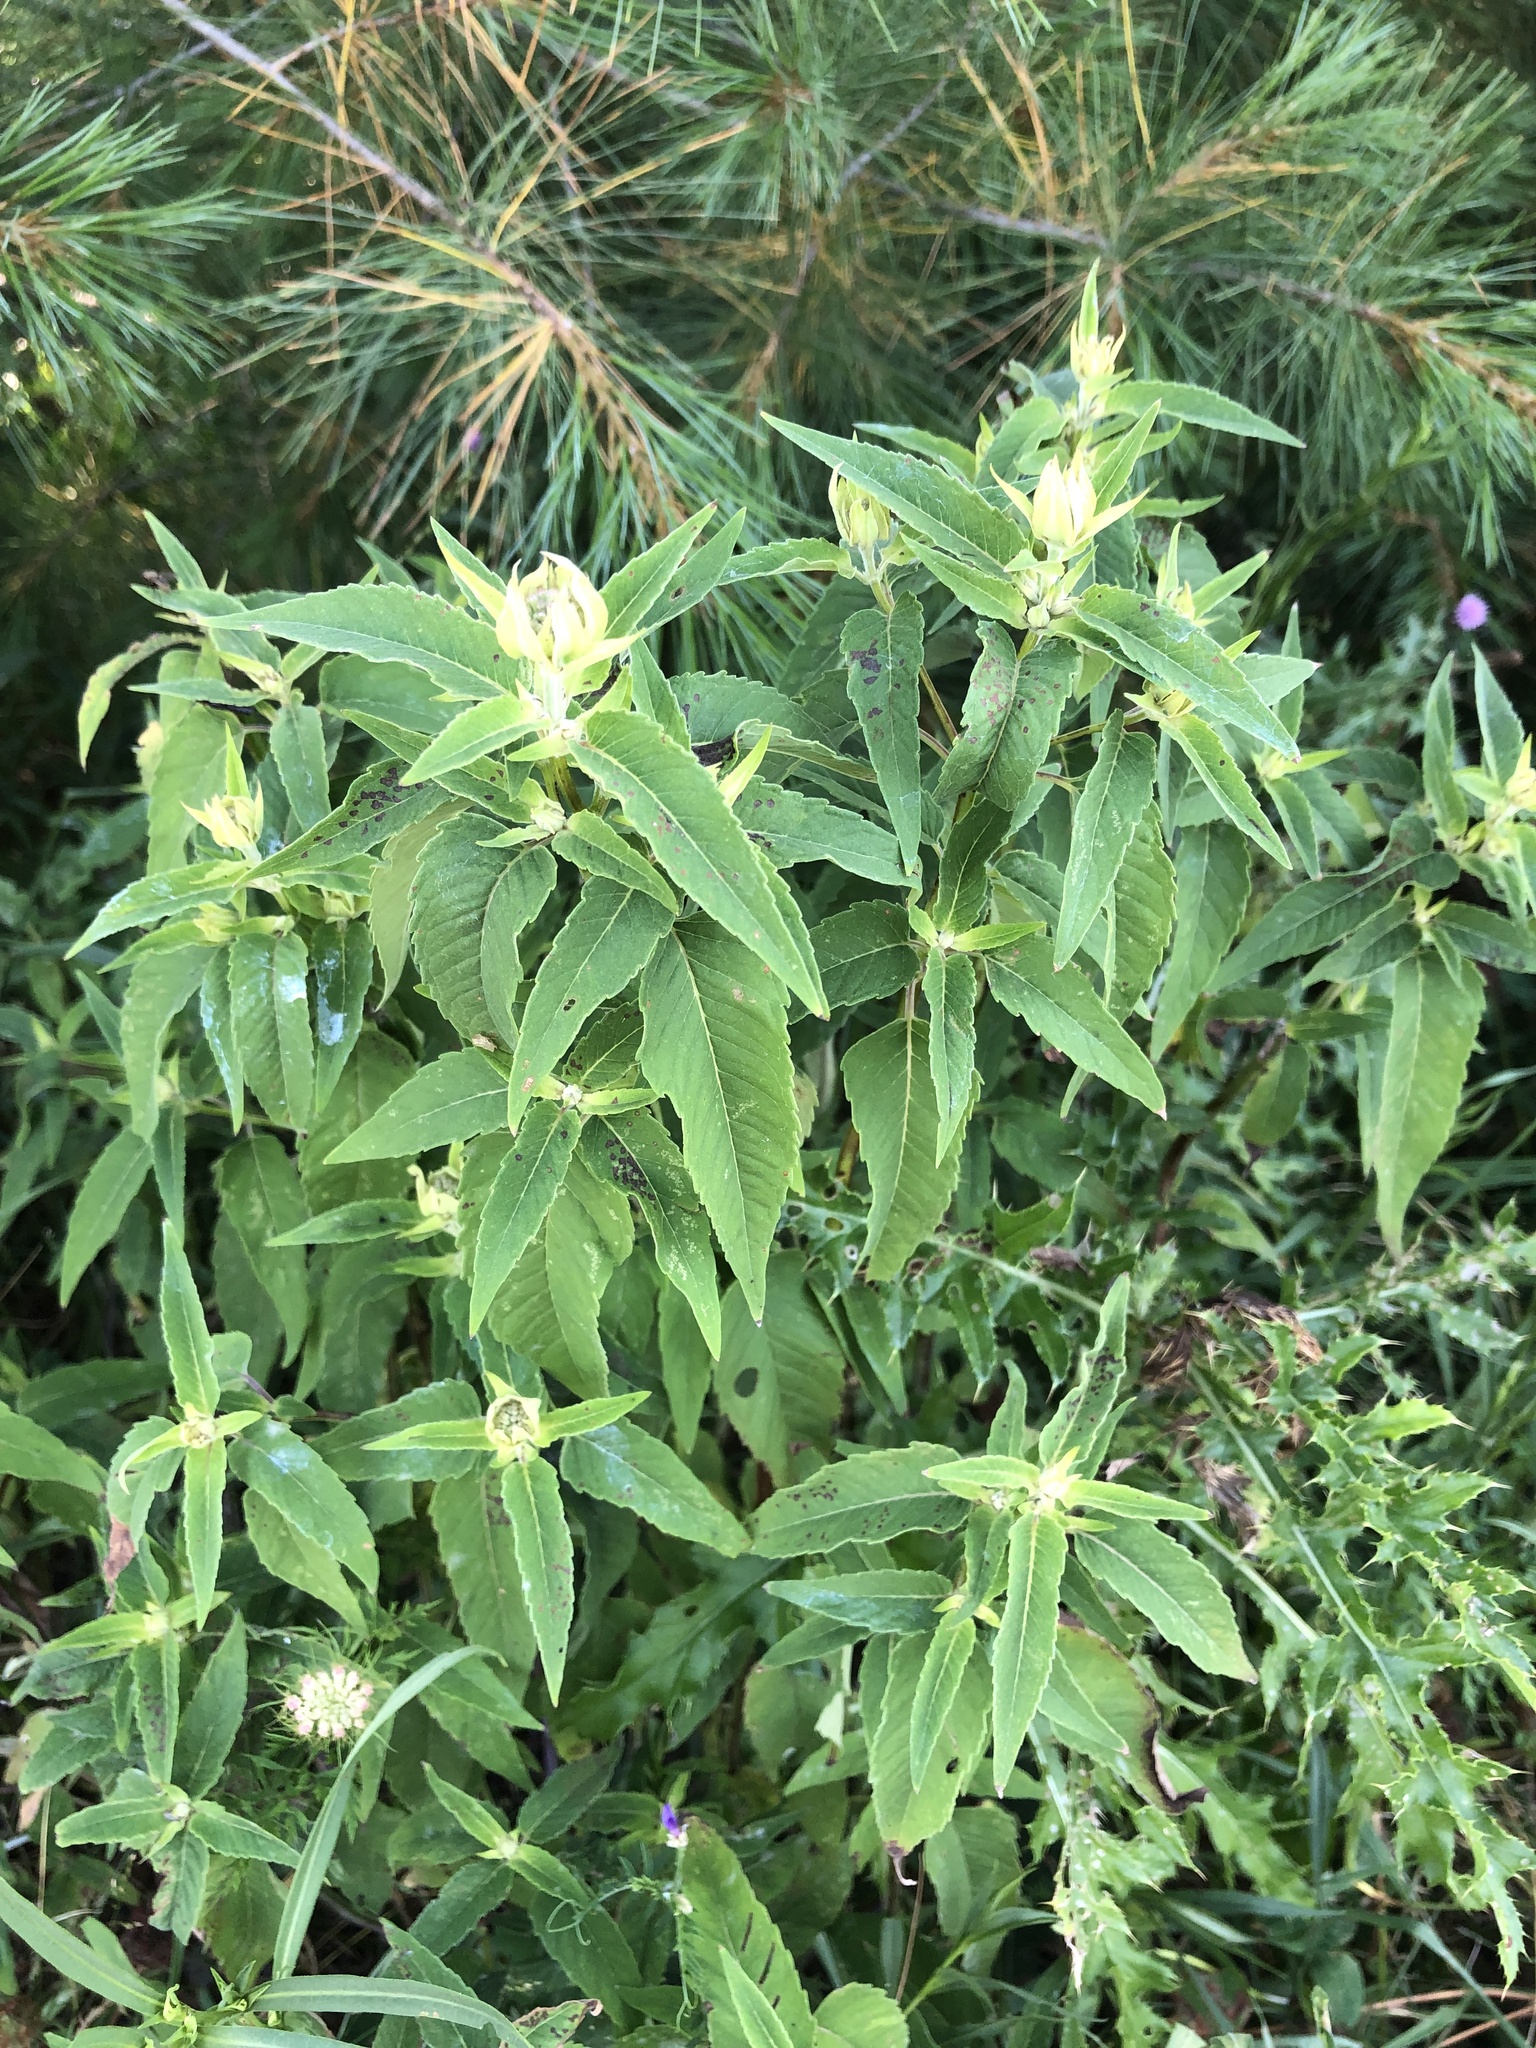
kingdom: Plantae
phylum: Tracheophyta
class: Magnoliopsida
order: Lamiales
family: Lamiaceae
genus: Monarda
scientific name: Monarda fistulosa
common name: Purple beebalm
